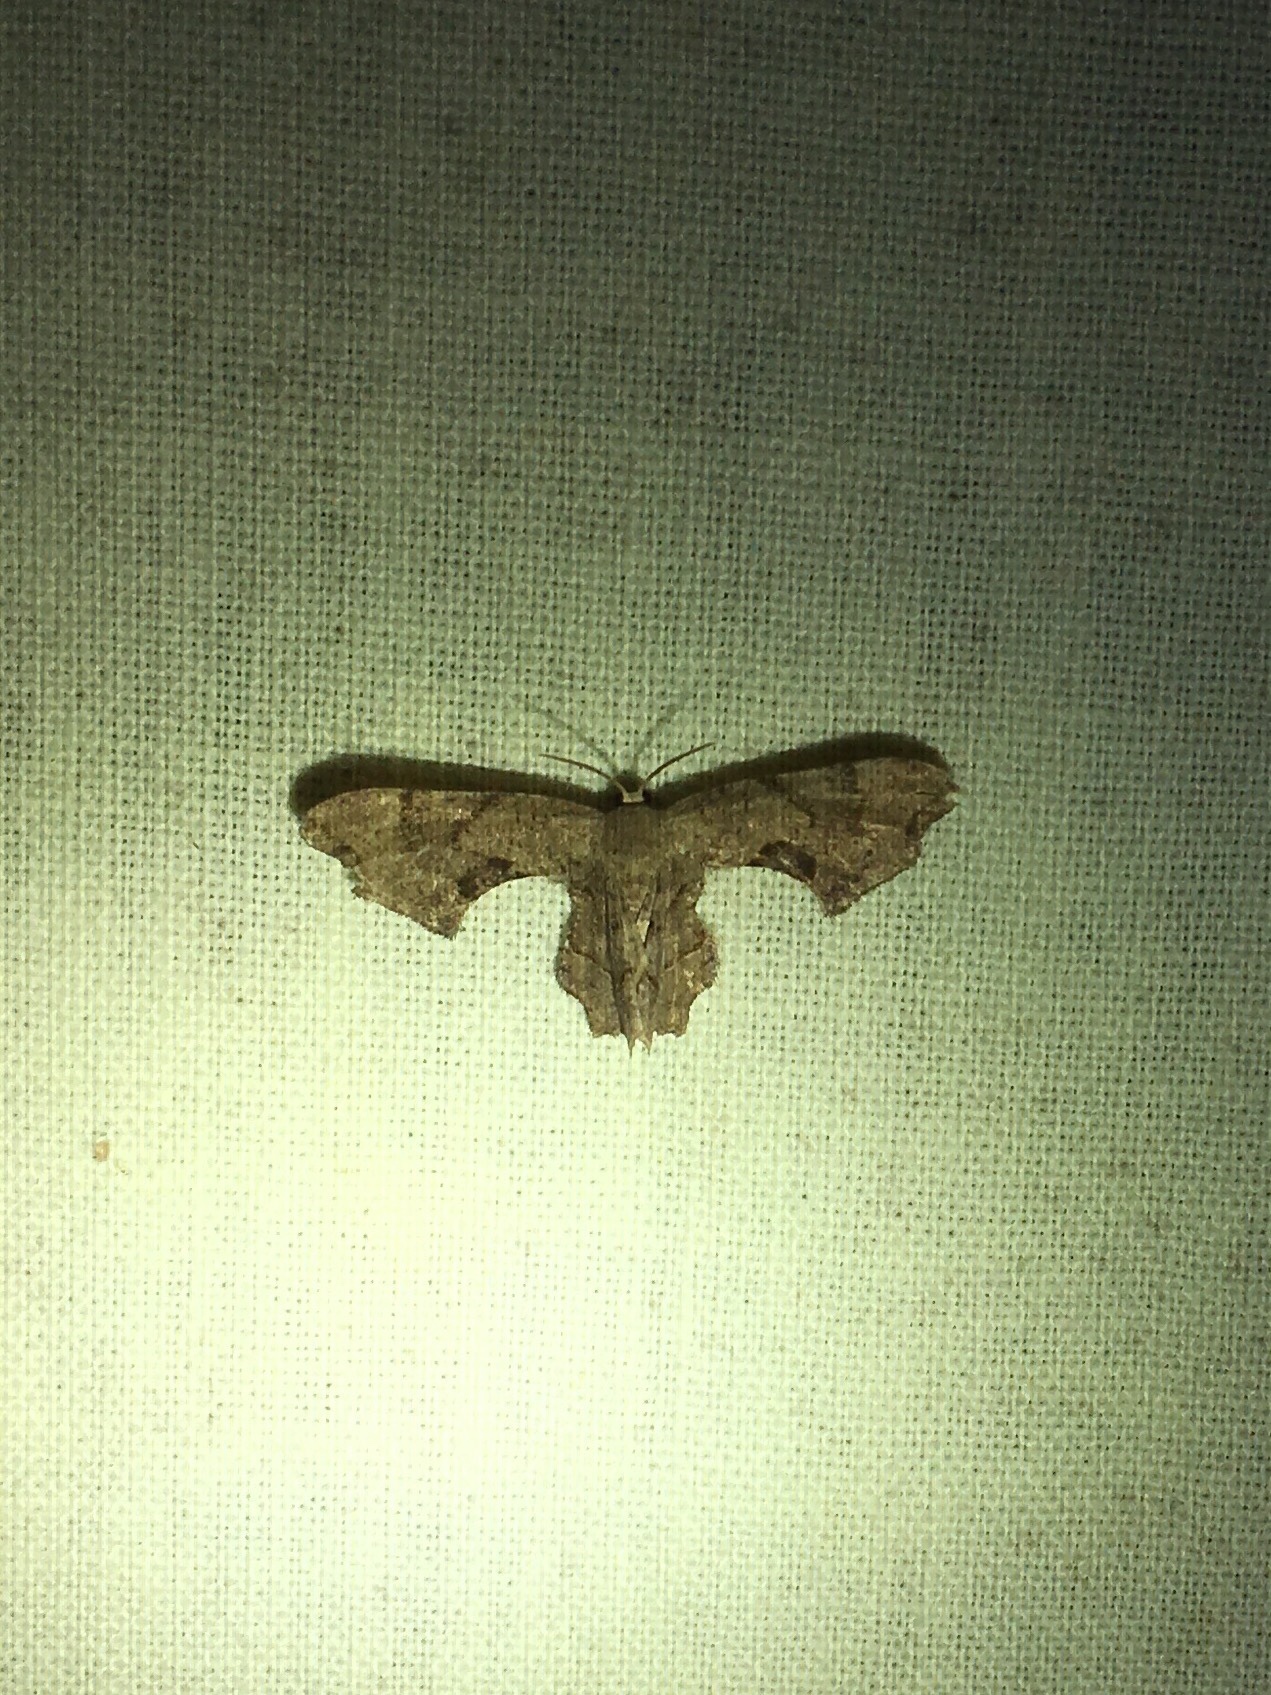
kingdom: Animalia
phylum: Arthropoda
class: Insecta
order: Lepidoptera
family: Uraniidae
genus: Epiplema
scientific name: Epiplema Calledapteryx dryopterata
